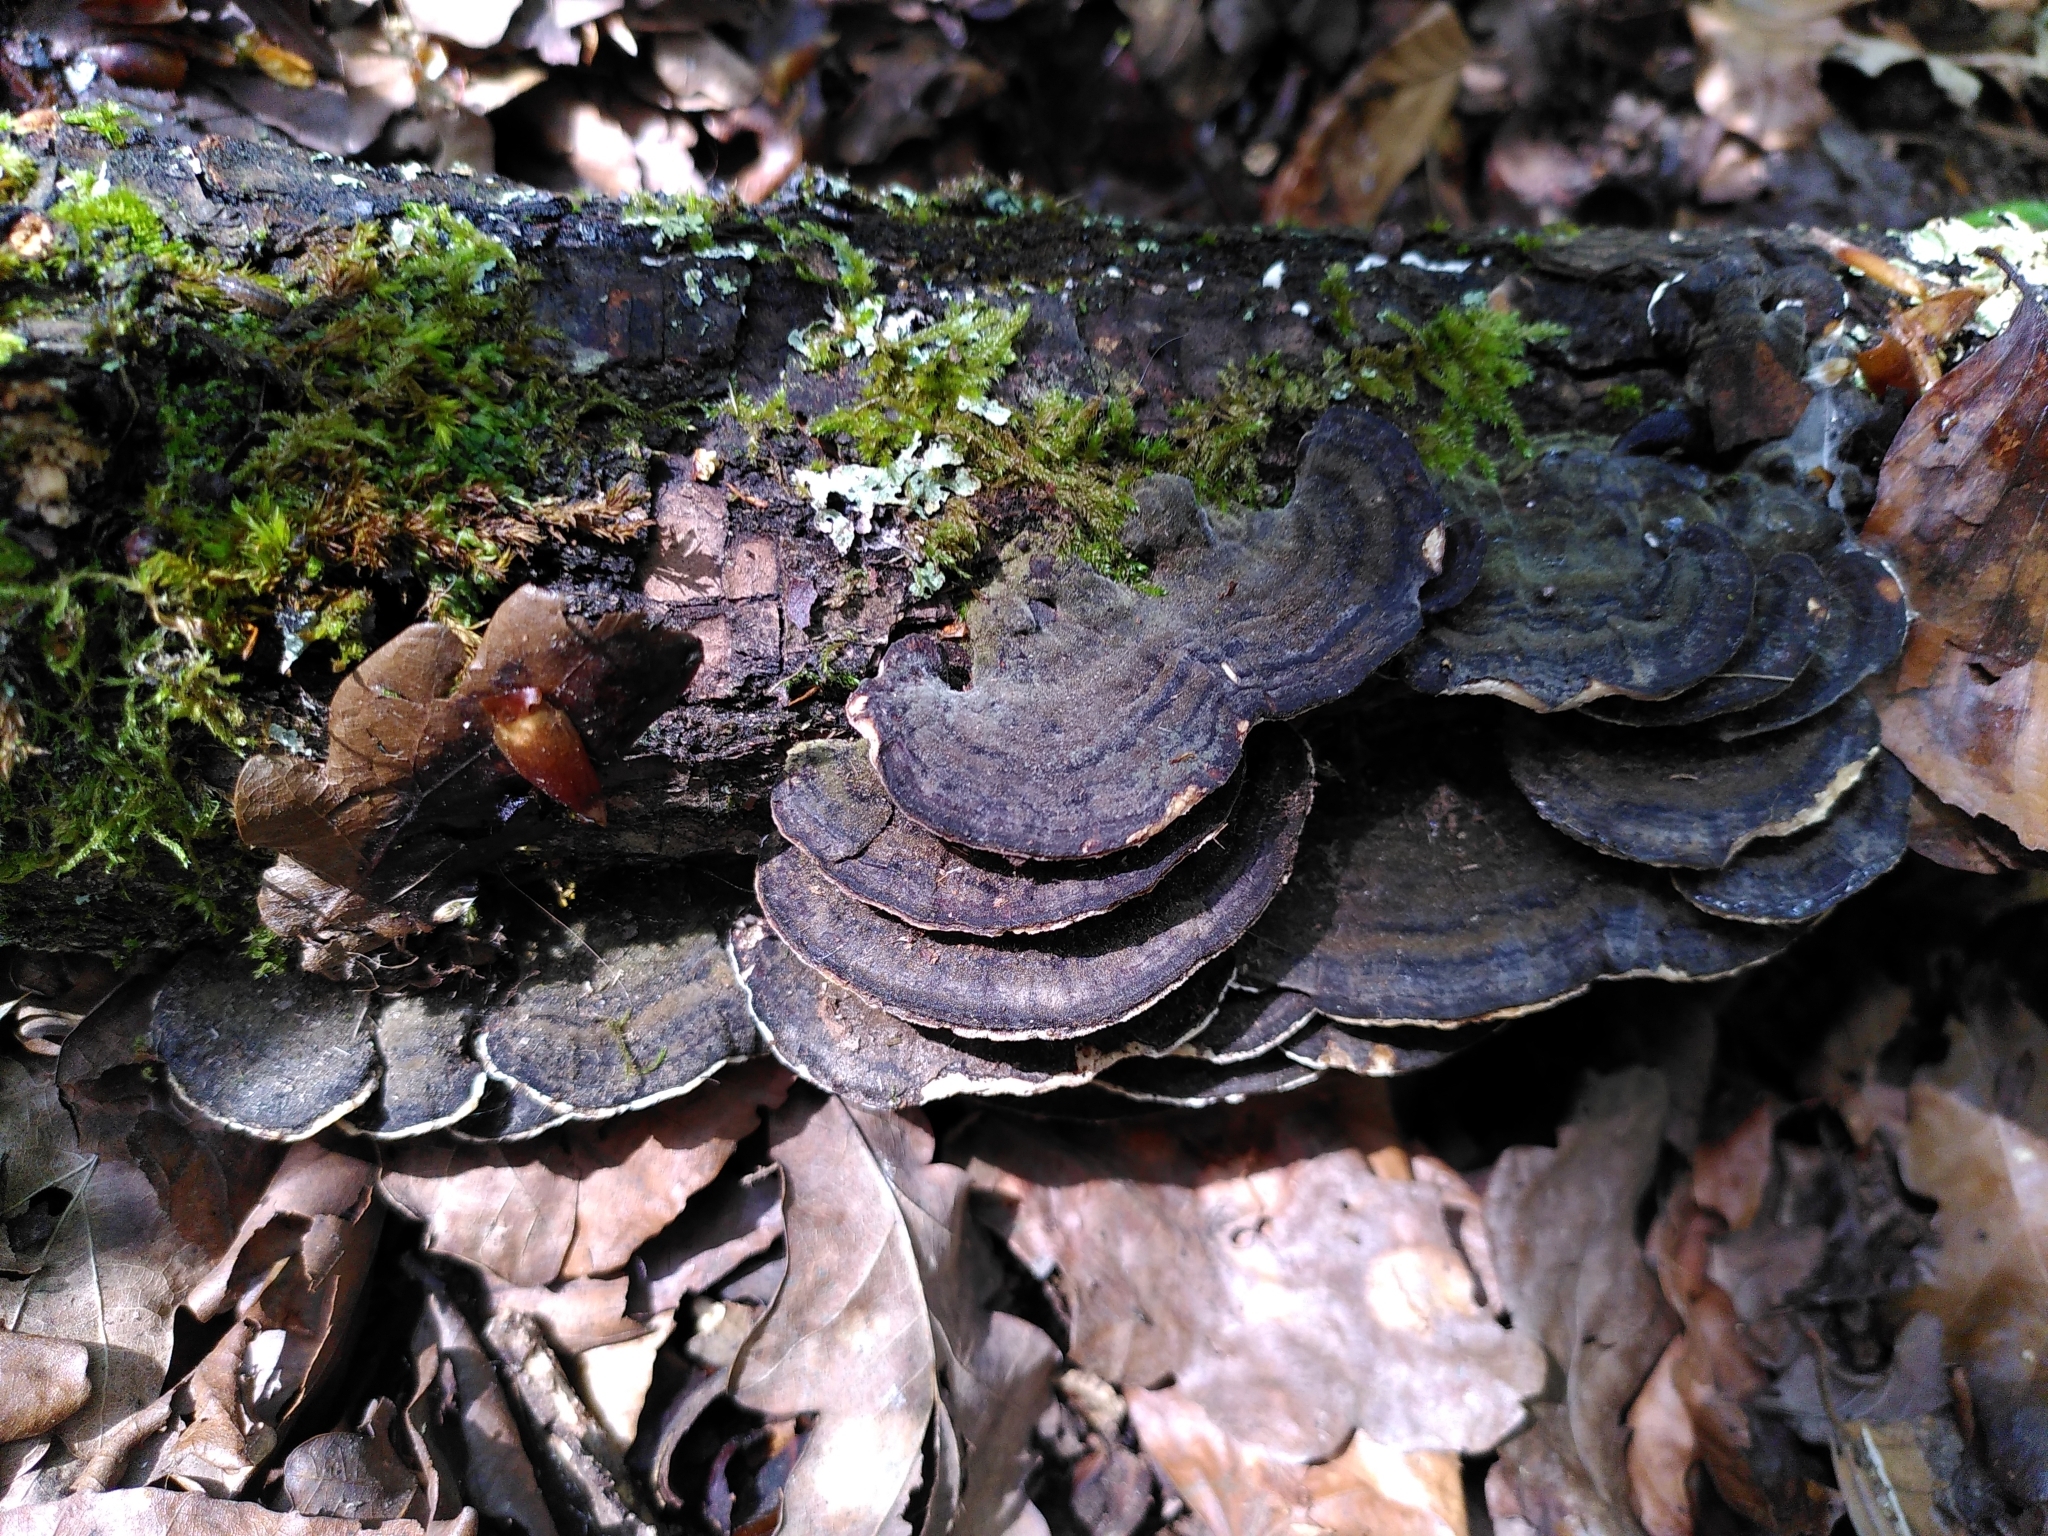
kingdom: Fungi
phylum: Basidiomycota
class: Agaricomycetes
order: Polyporales
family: Polyporaceae
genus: Trametes
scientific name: Trametes versicolor
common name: Turkeytail
